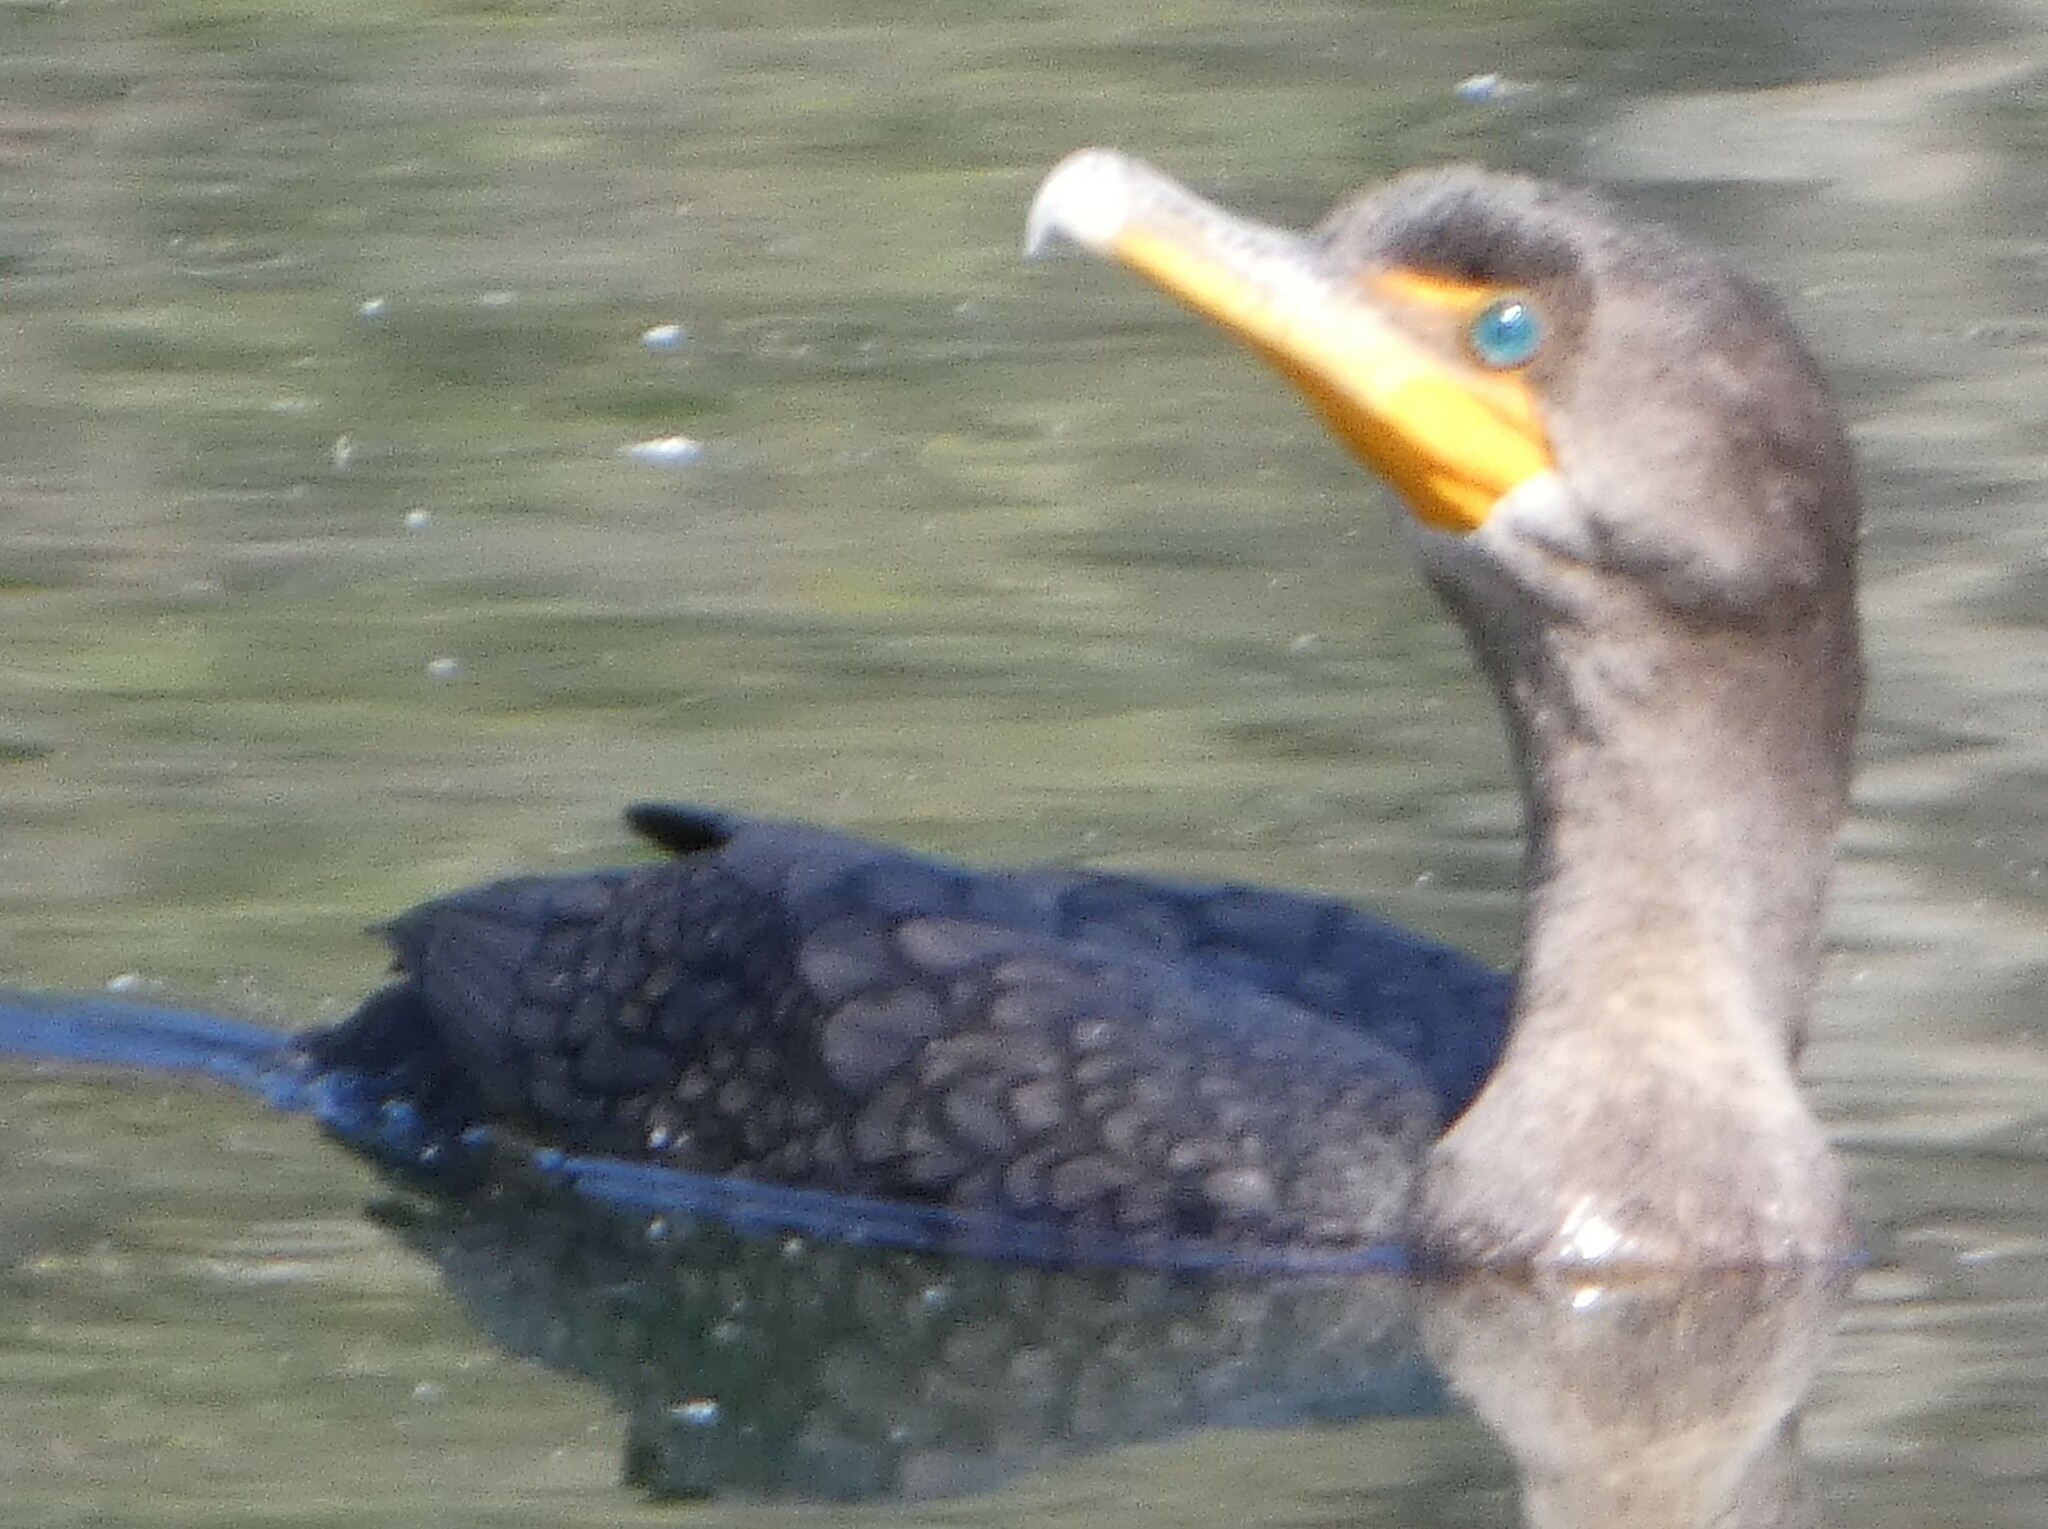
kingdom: Animalia
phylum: Chordata
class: Aves
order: Suliformes
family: Phalacrocoracidae
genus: Phalacrocorax
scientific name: Phalacrocorax auritus
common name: Double-crested cormorant
